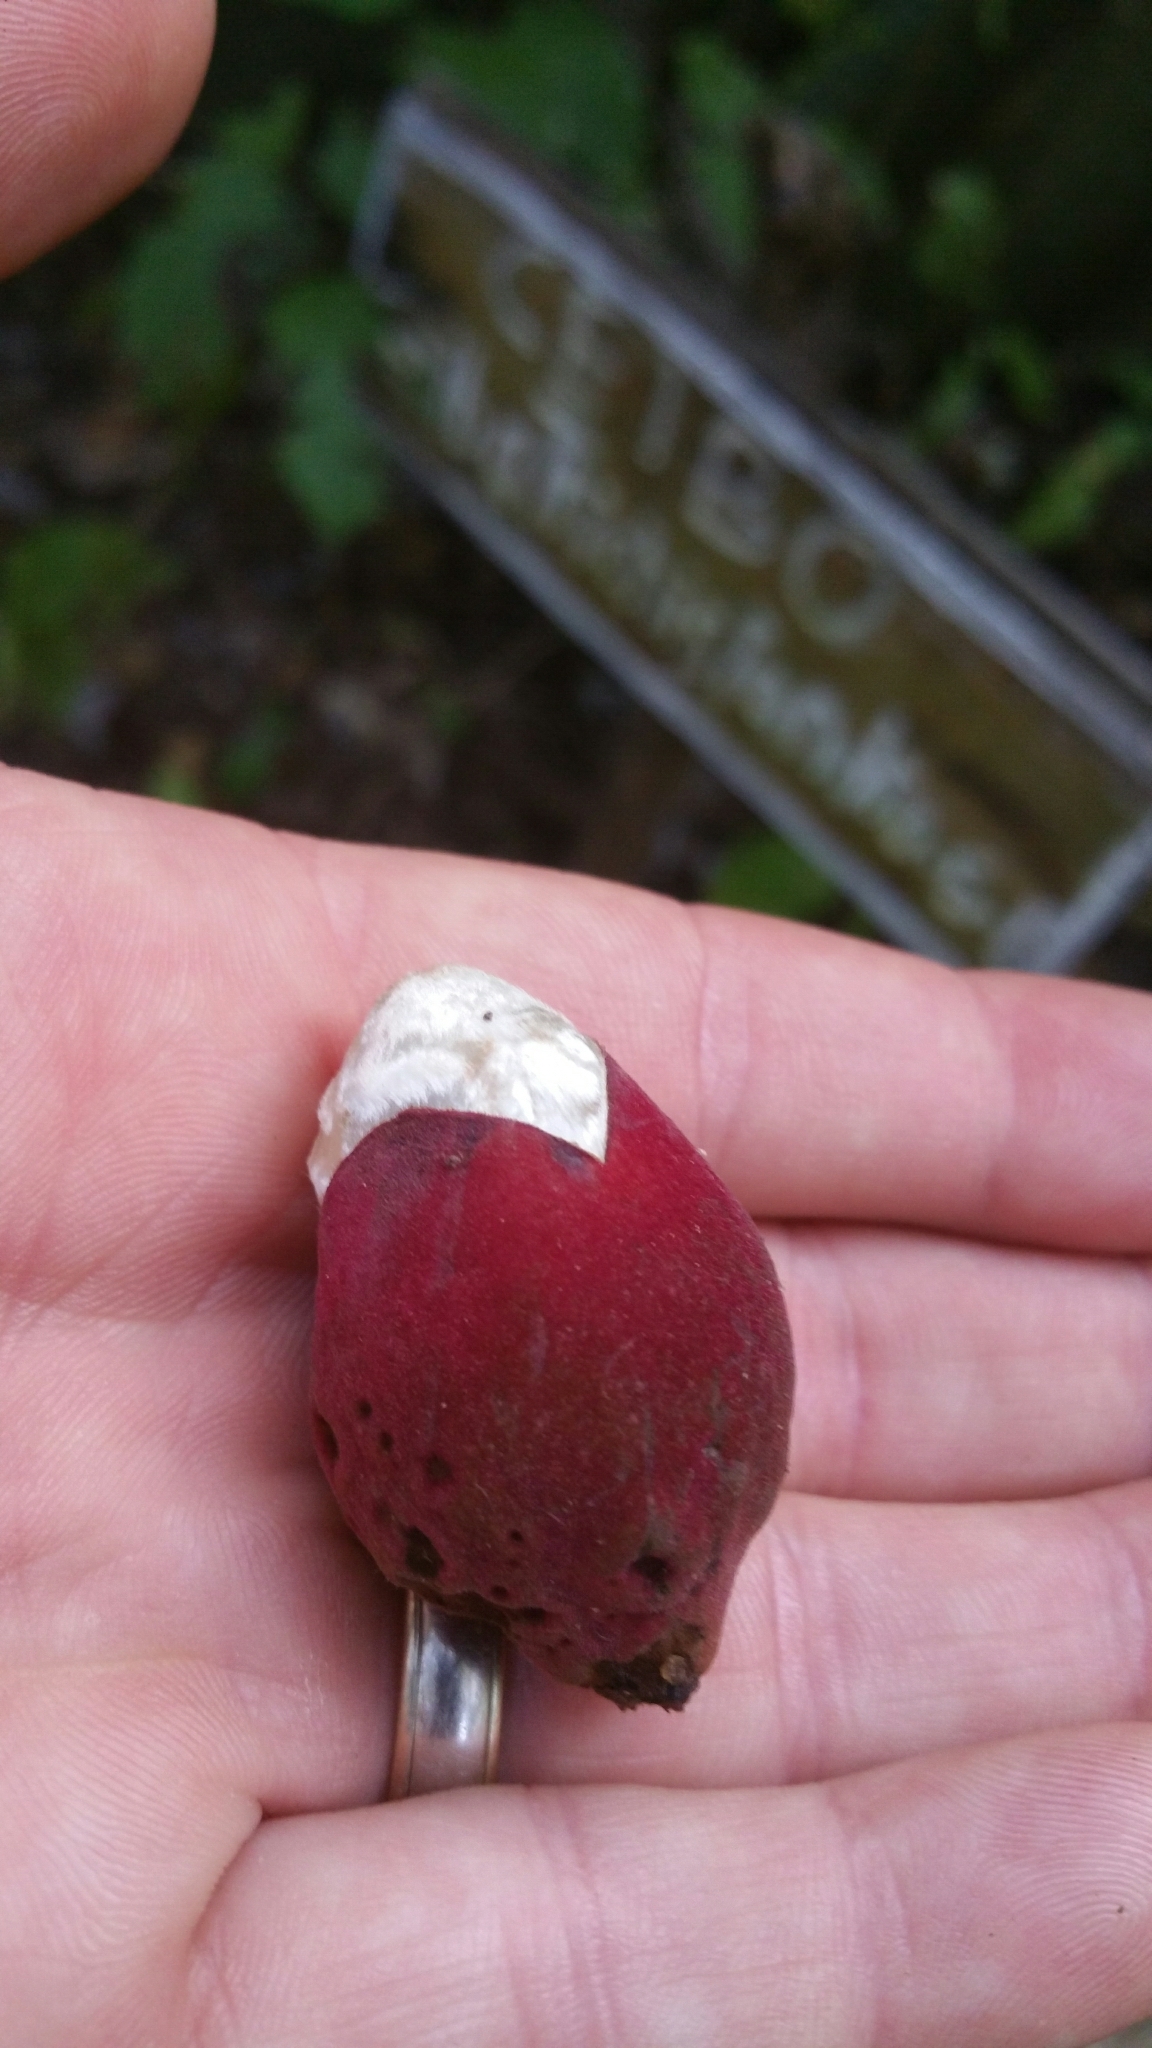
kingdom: Plantae
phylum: Tracheophyta
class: Magnoliopsida
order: Malvales
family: Malvaceae
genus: Ceiba
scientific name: Ceiba trischistandra
